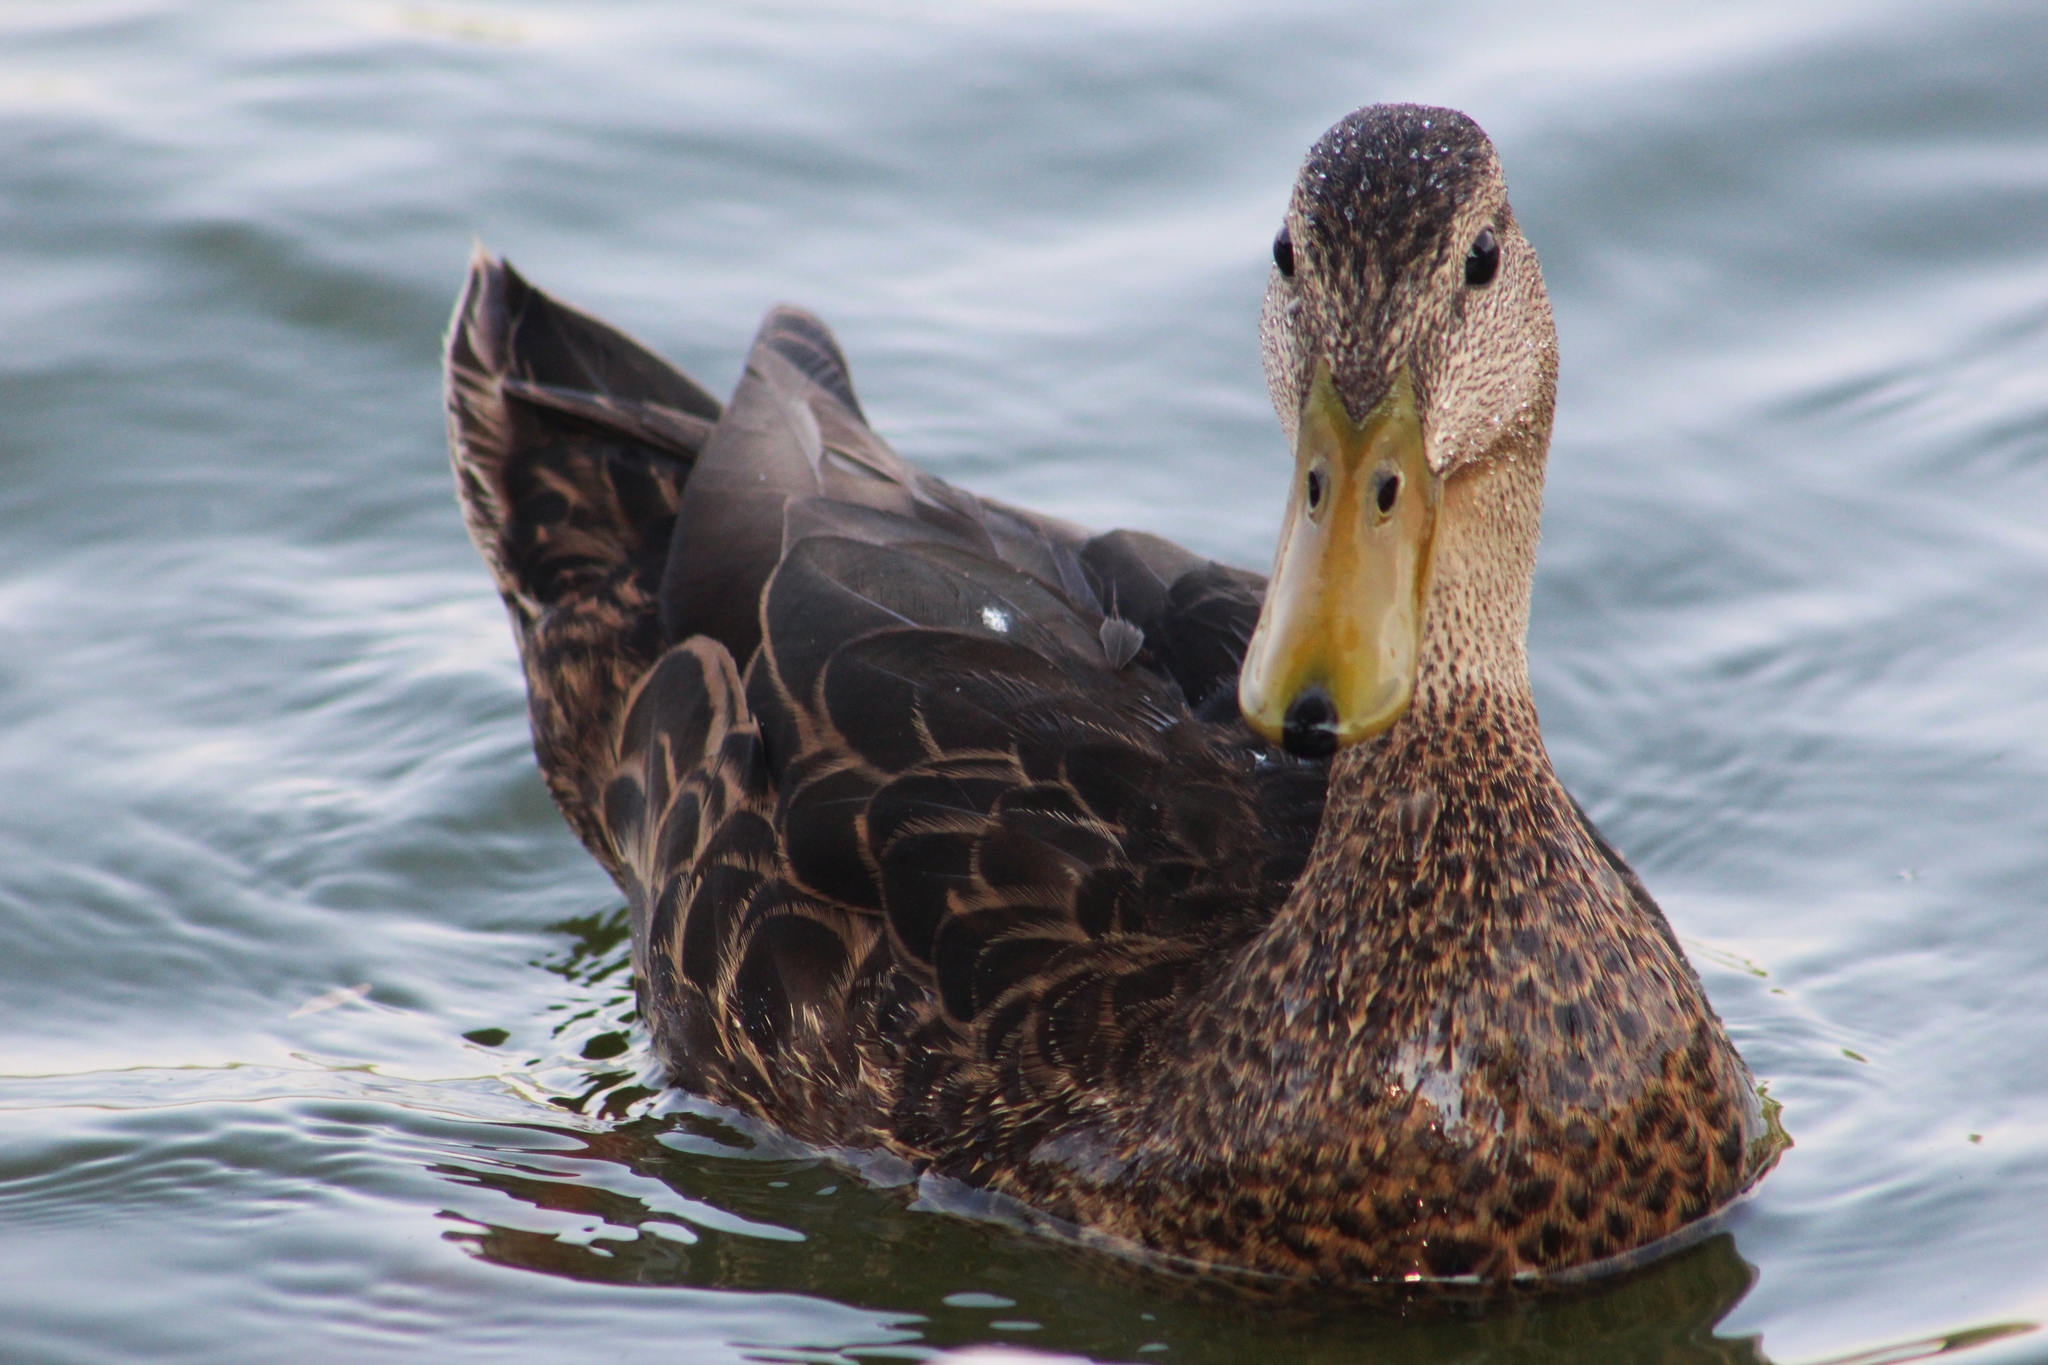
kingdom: Animalia
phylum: Chordata
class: Aves
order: Anseriformes
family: Anatidae
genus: Anas
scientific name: Anas diazi
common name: Mexican duck
